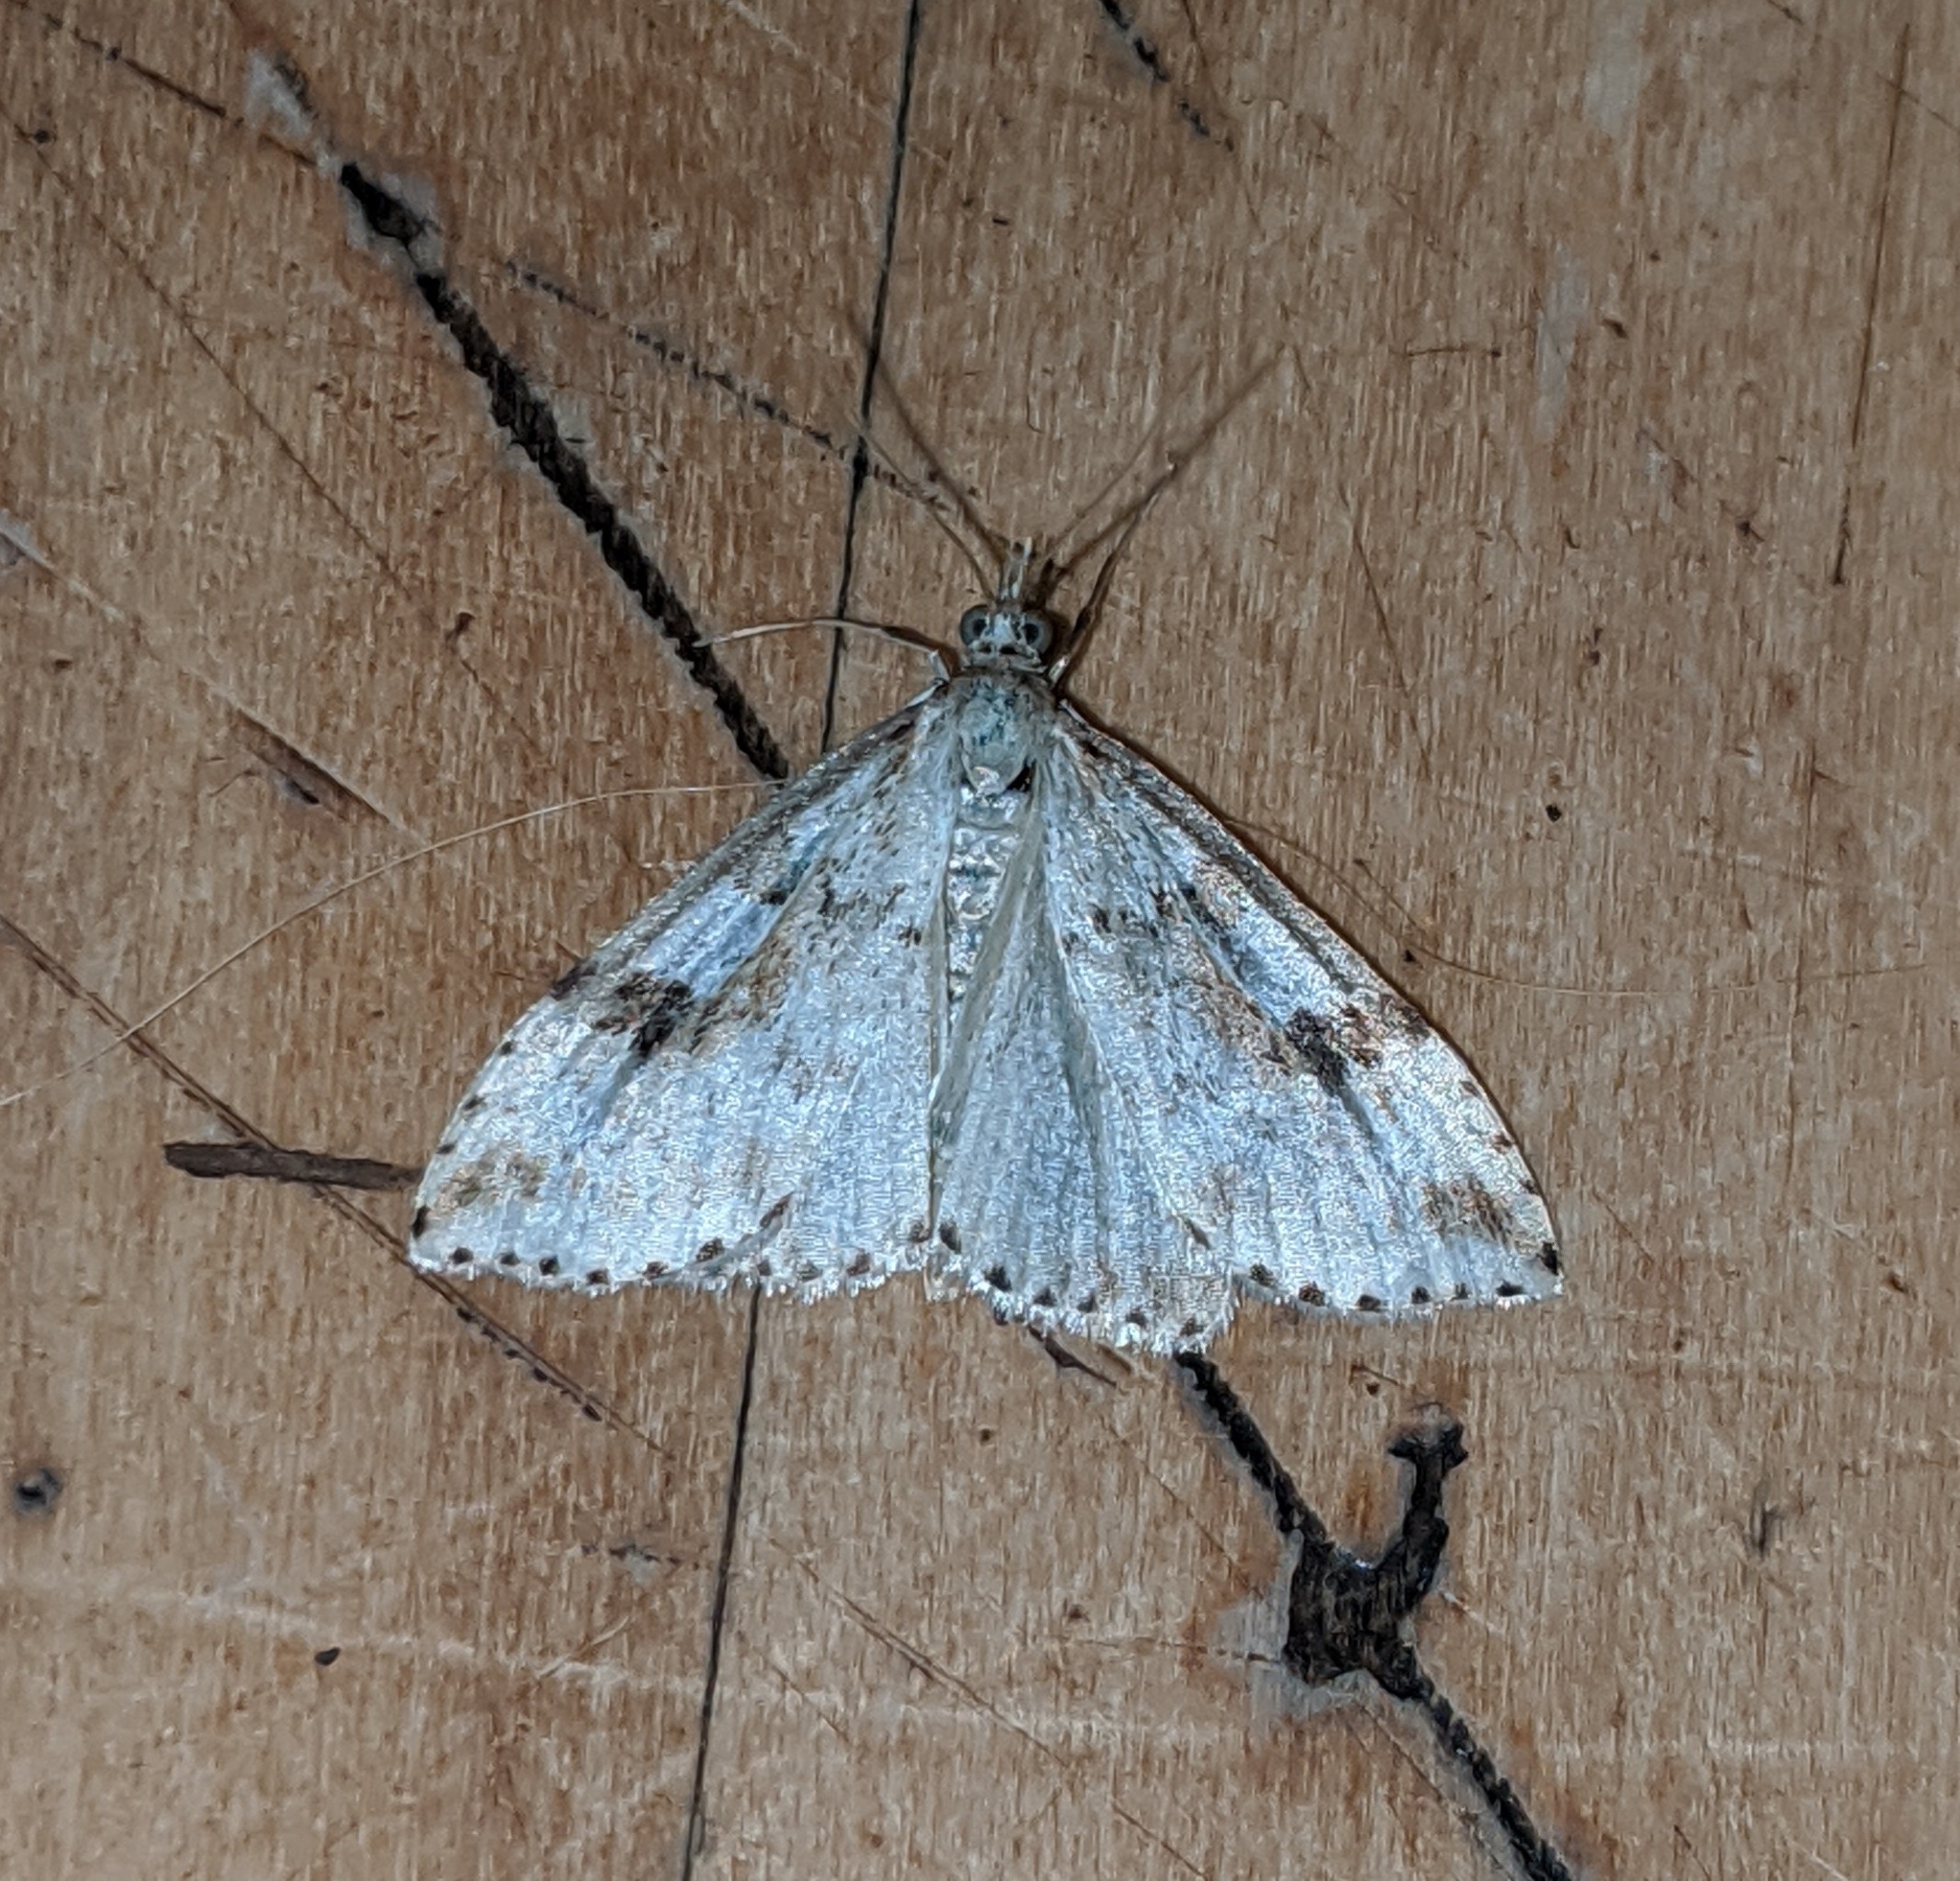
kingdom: Animalia
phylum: Arthropoda
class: Insecta
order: Lepidoptera
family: Crambidae
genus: Udea
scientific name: Udea washingtonalis
